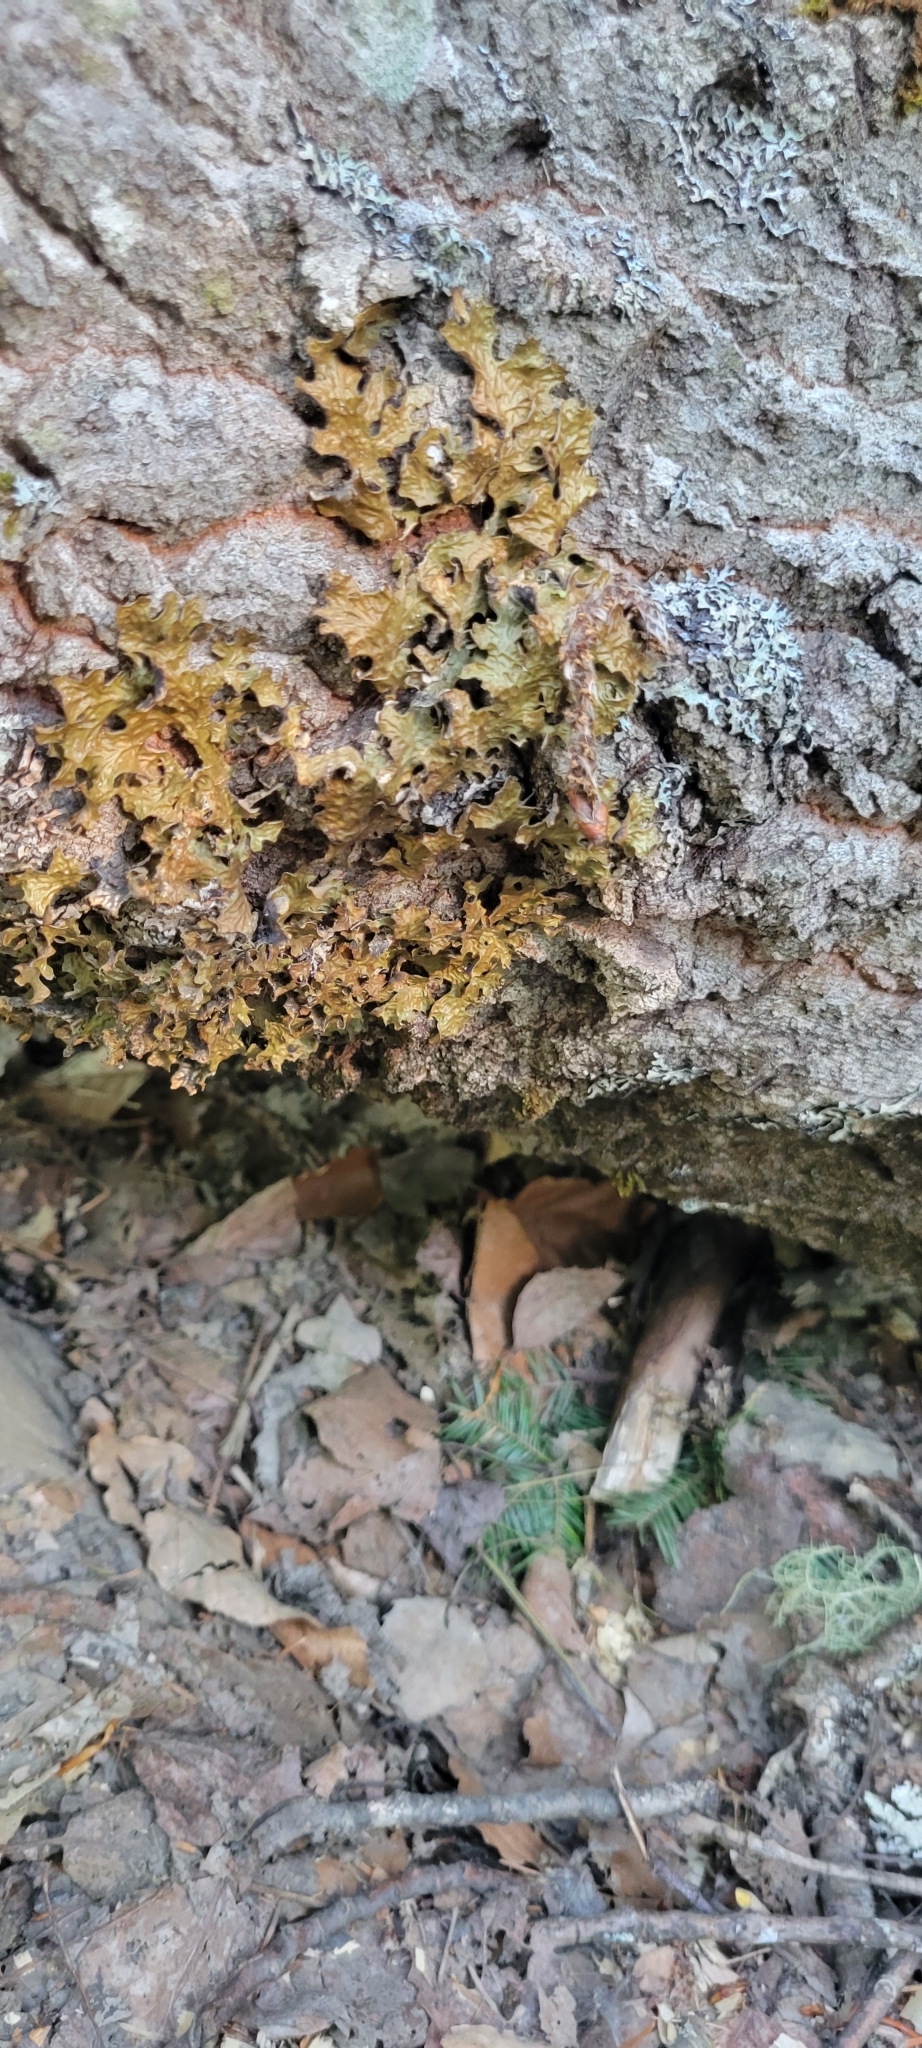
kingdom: Fungi
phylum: Ascomycota
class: Lecanoromycetes
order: Peltigerales
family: Lobariaceae
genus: Lobaria
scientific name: Lobaria pulmonaria
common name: Lungwort
